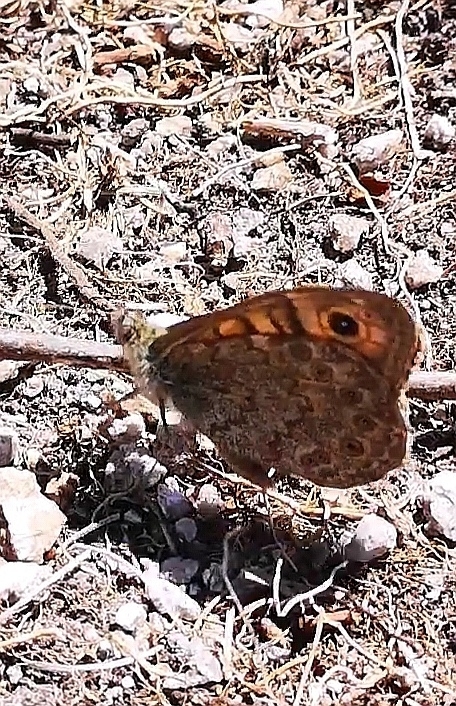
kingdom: Animalia
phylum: Arthropoda
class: Insecta
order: Lepidoptera
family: Nymphalidae
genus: Pararge
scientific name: Pararge Lasiommata megera
